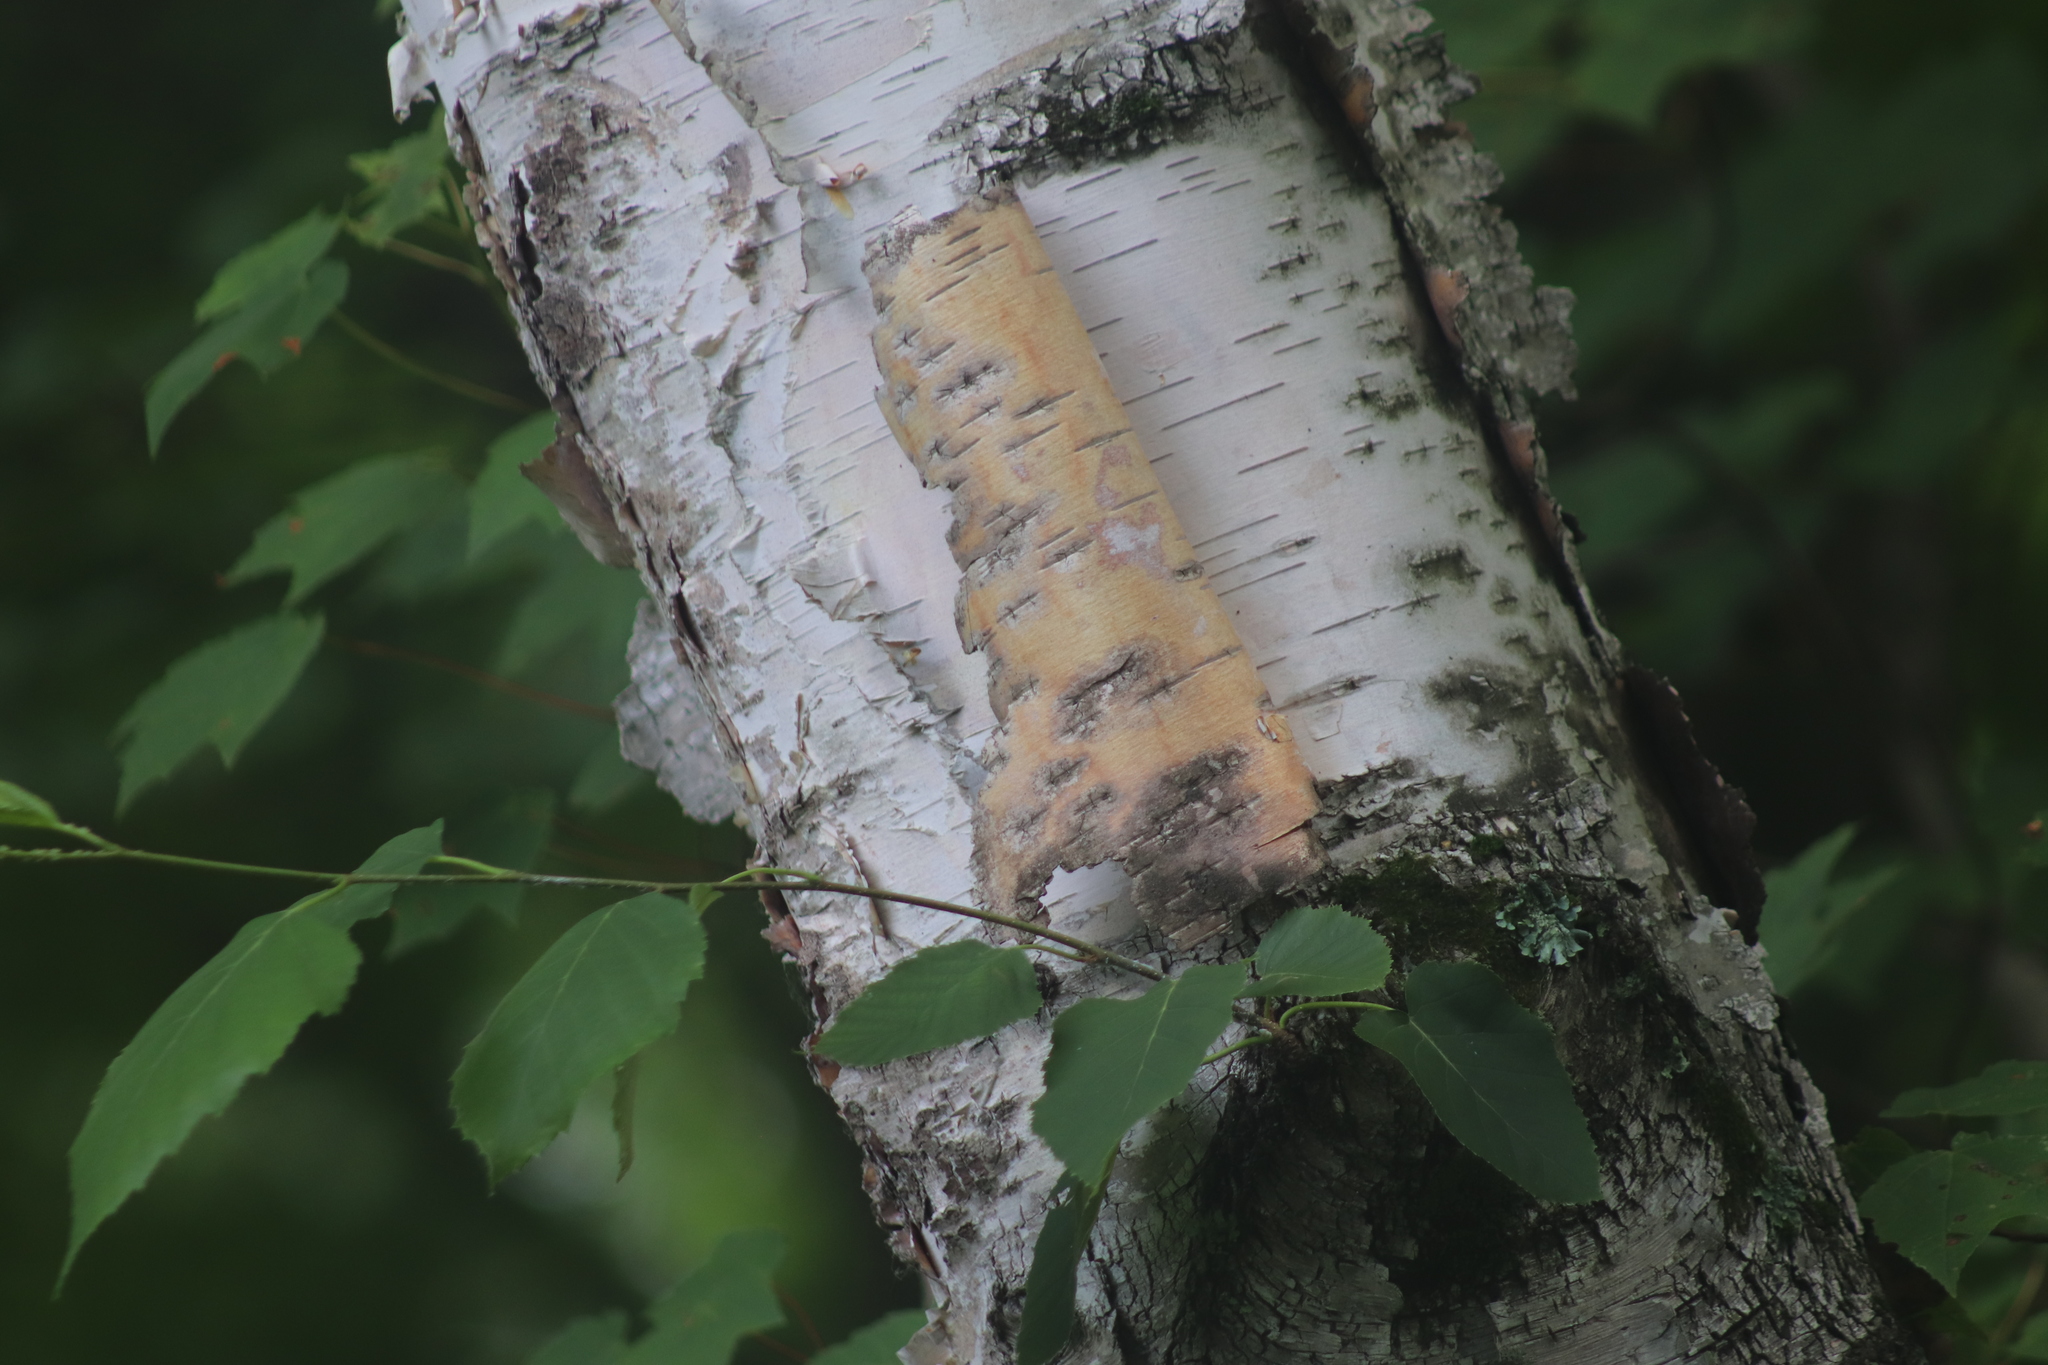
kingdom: Plantae
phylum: Tracheophyta
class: Magnoliopsida
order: Fagales
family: Betulaceae
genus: Betula
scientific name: Betula papyrifera
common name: Paper birch
